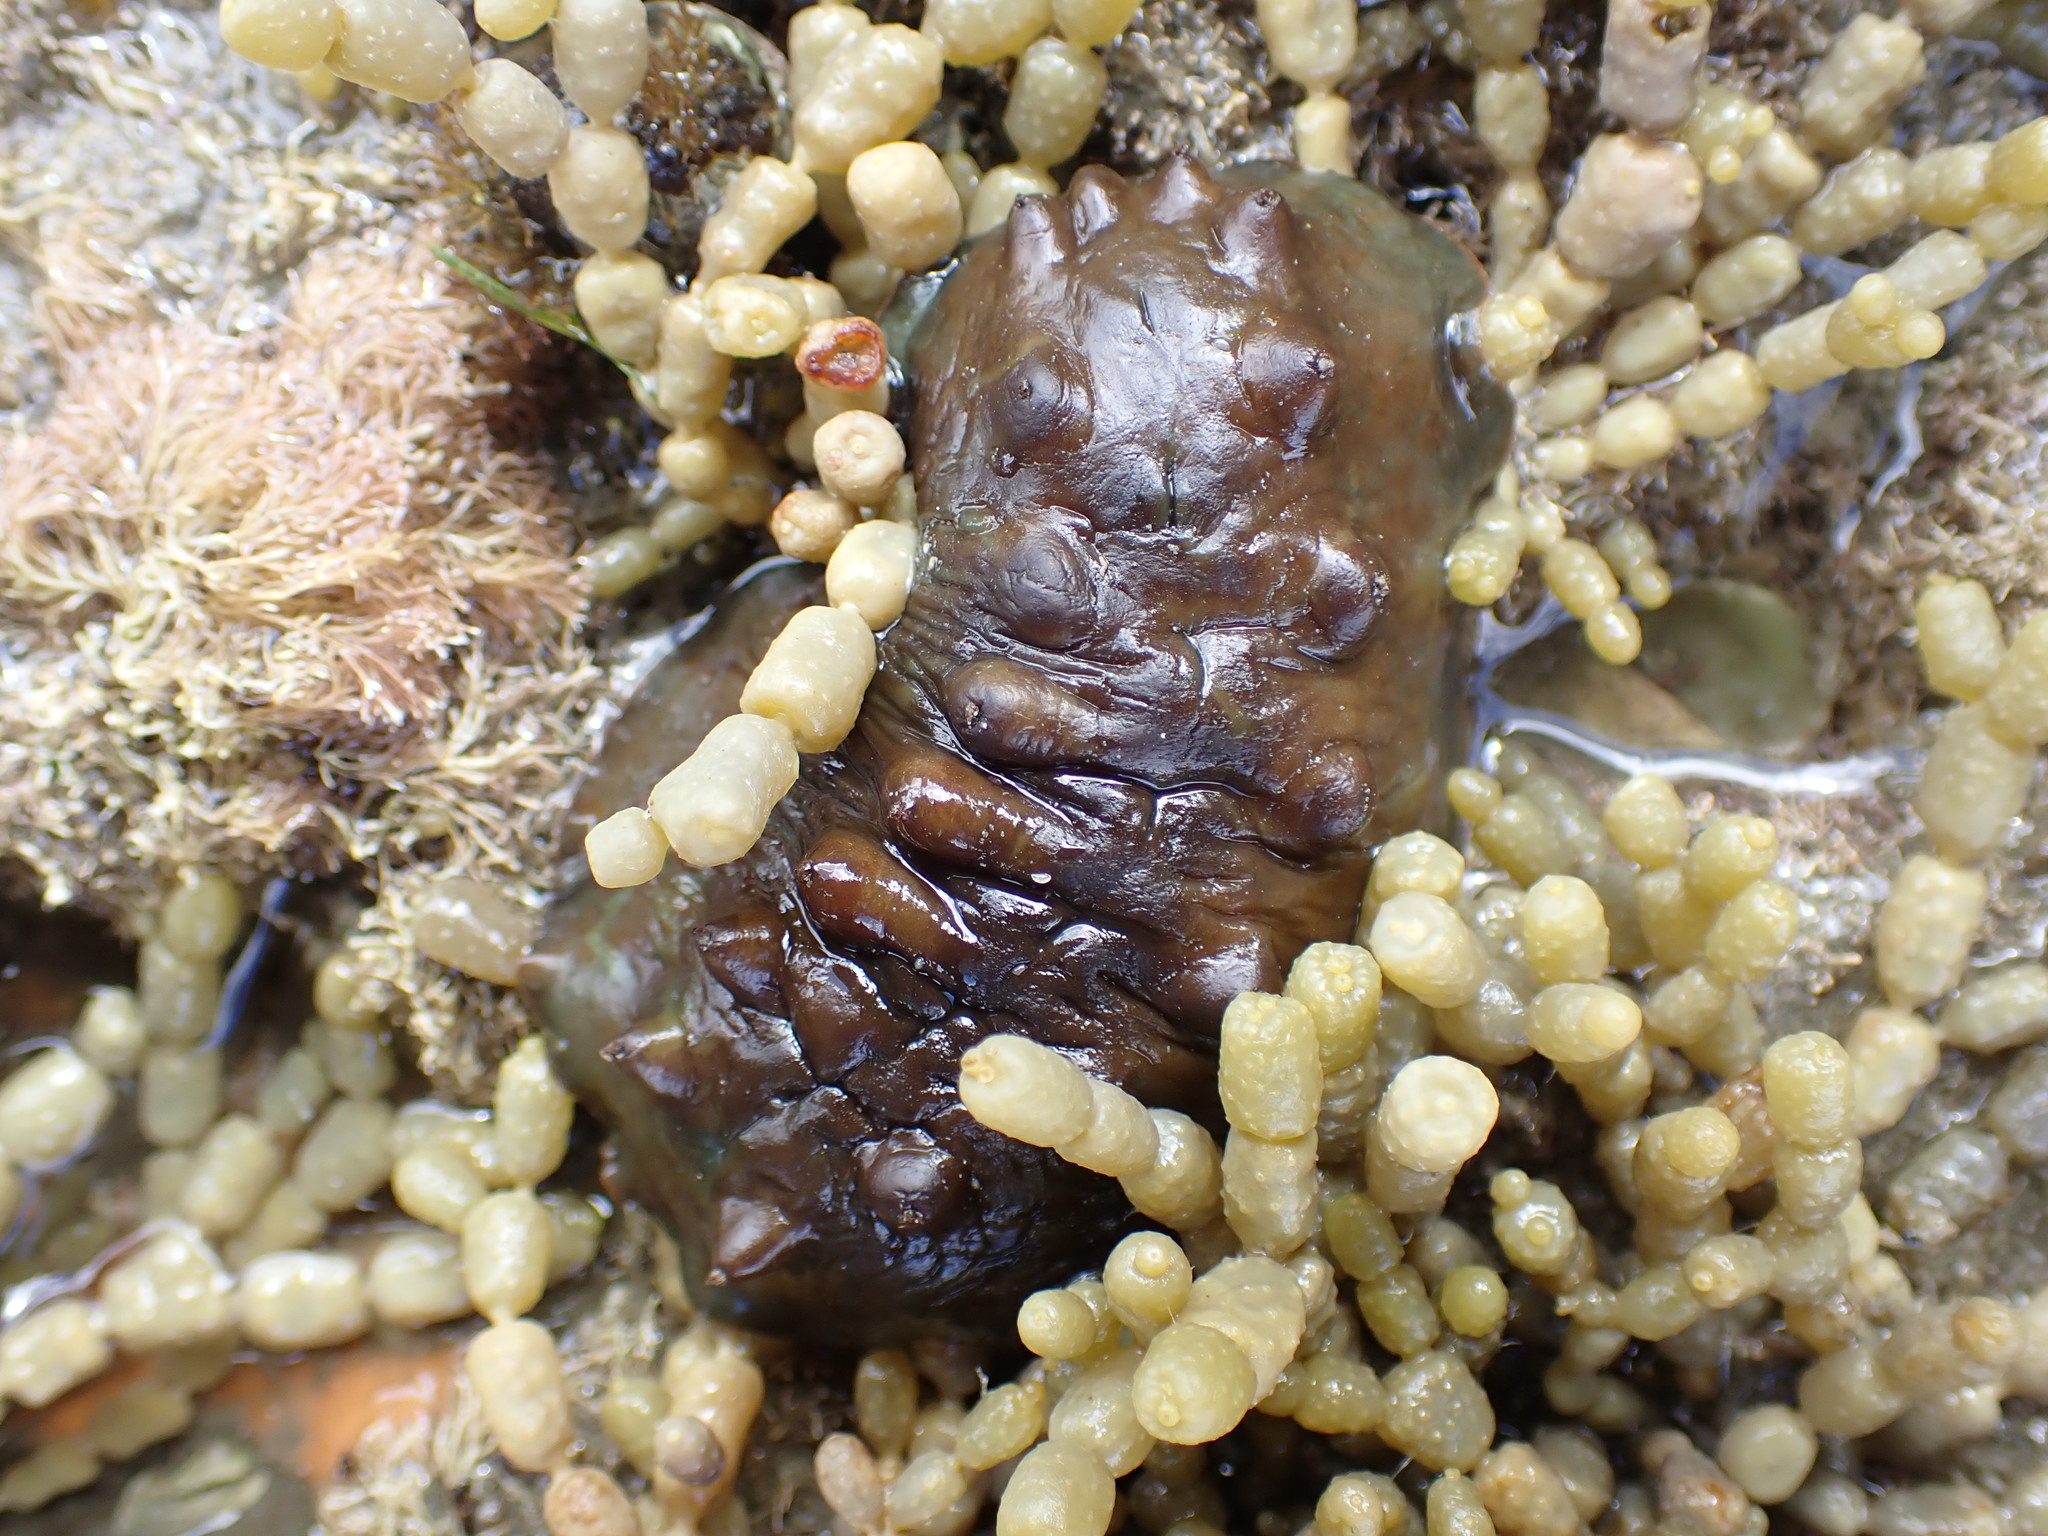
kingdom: Animalia
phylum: Mollusca
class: Polyplacophora
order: Chitonida
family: Acanthochitonidae
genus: Cryptoconchus
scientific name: Cryptoconchus porosus
